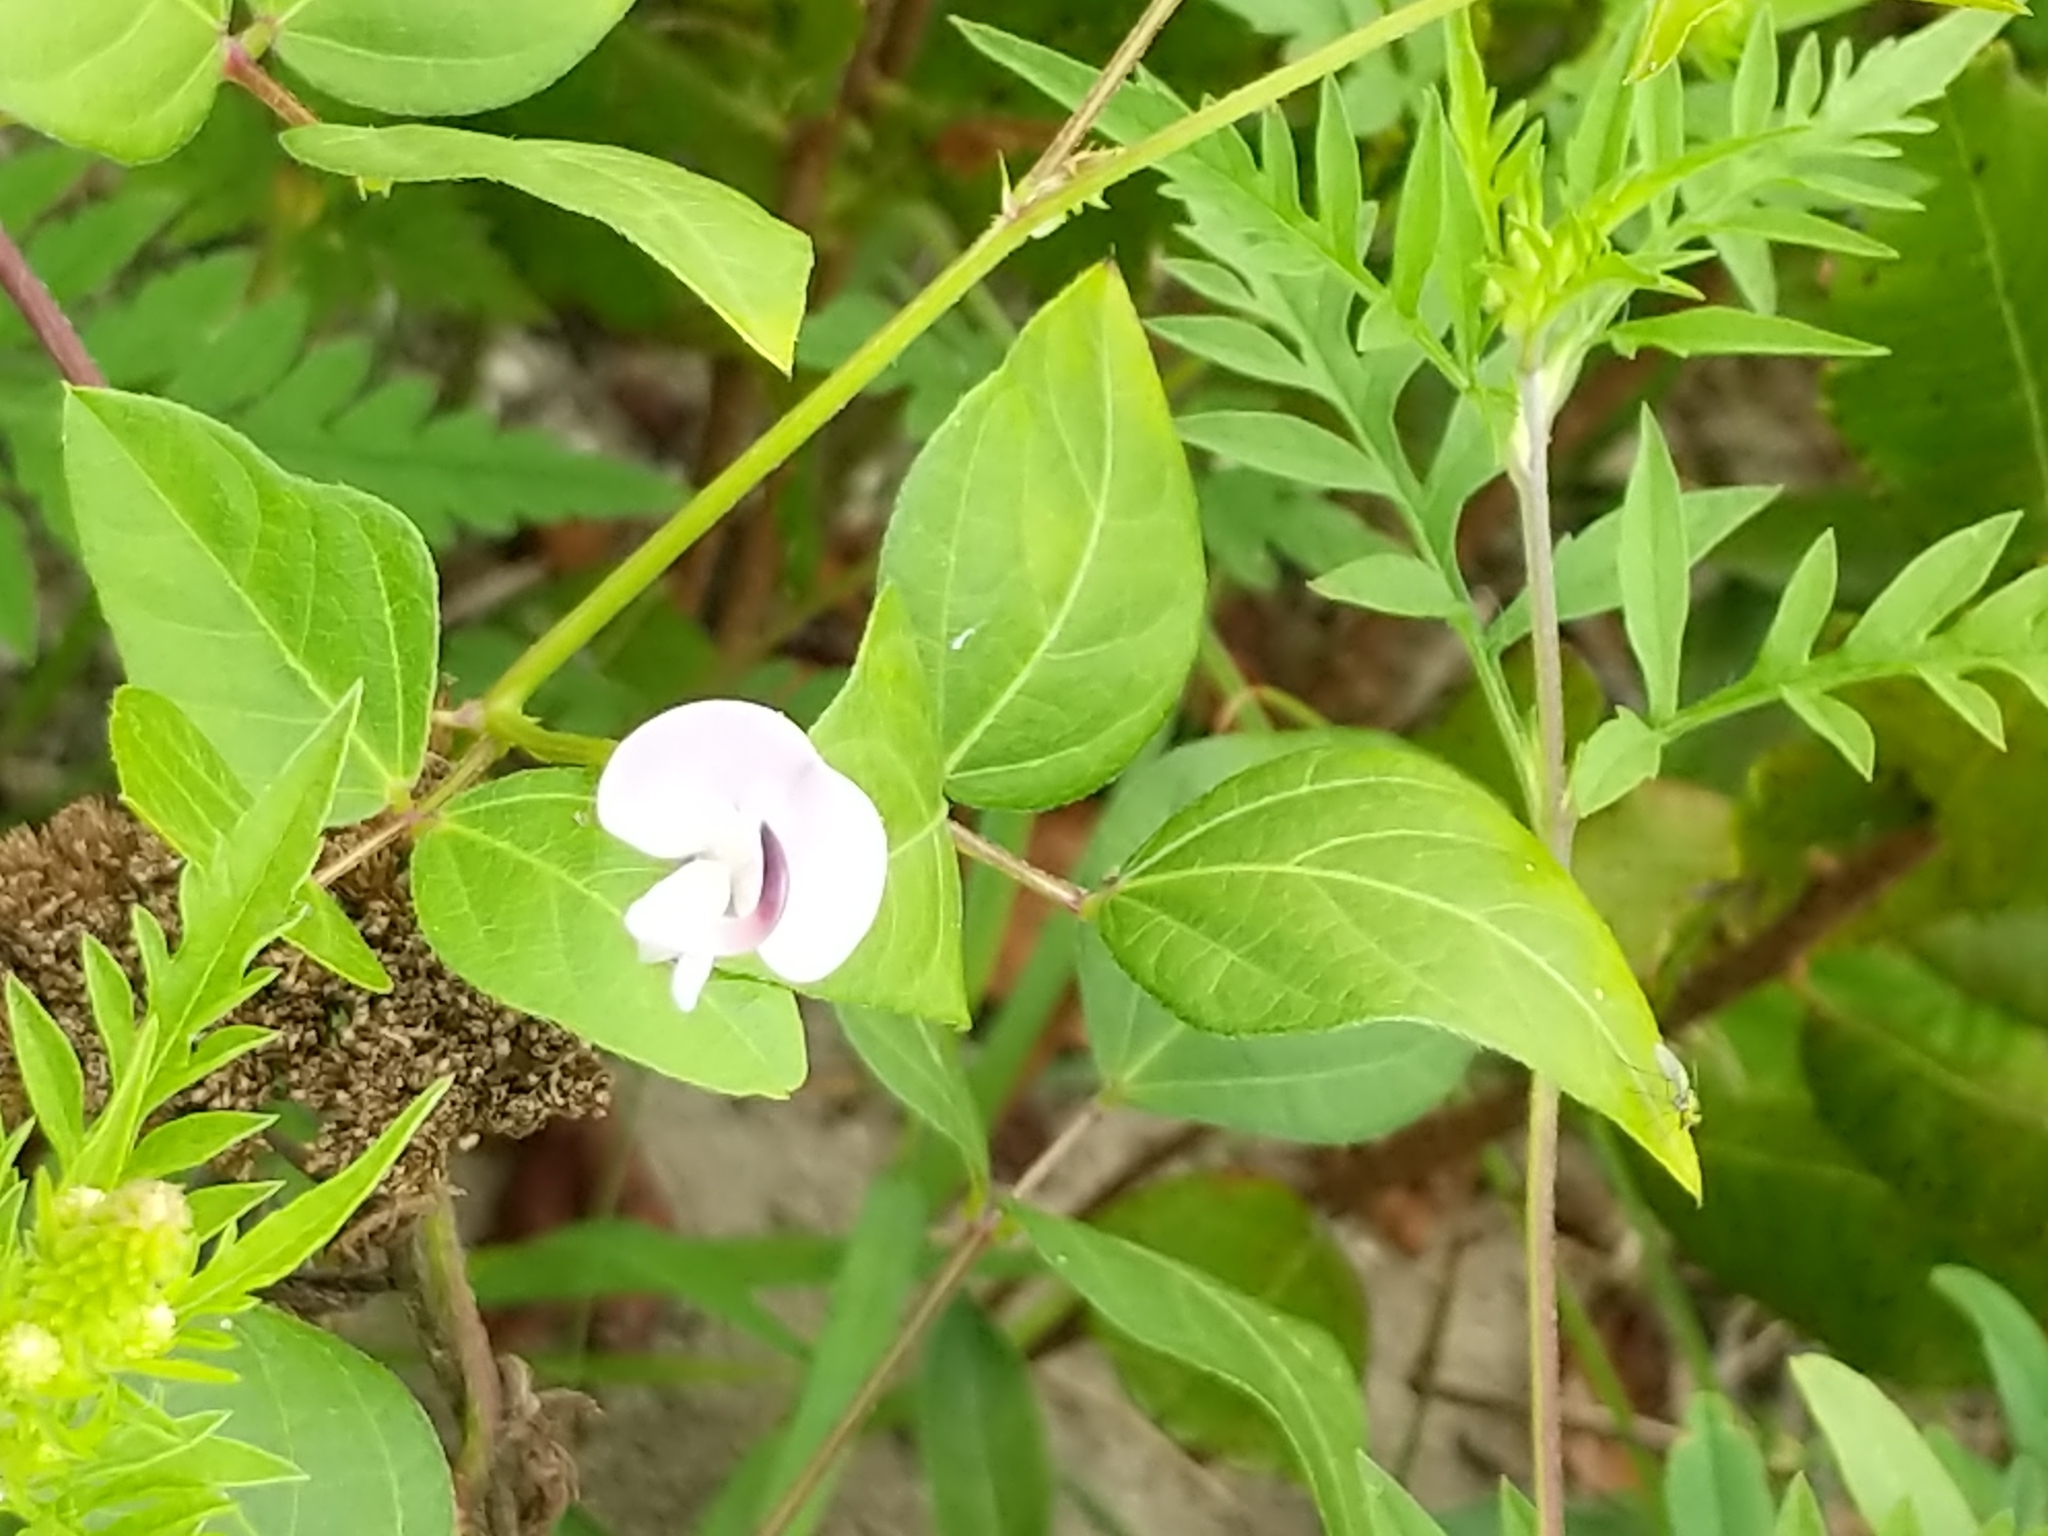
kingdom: Plantae
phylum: Tracheophyta
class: Magnoliopsida
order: Fabales
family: Fabaceae
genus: Strophostyles
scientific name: Strophostyles helvola
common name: Trailing wild bean
